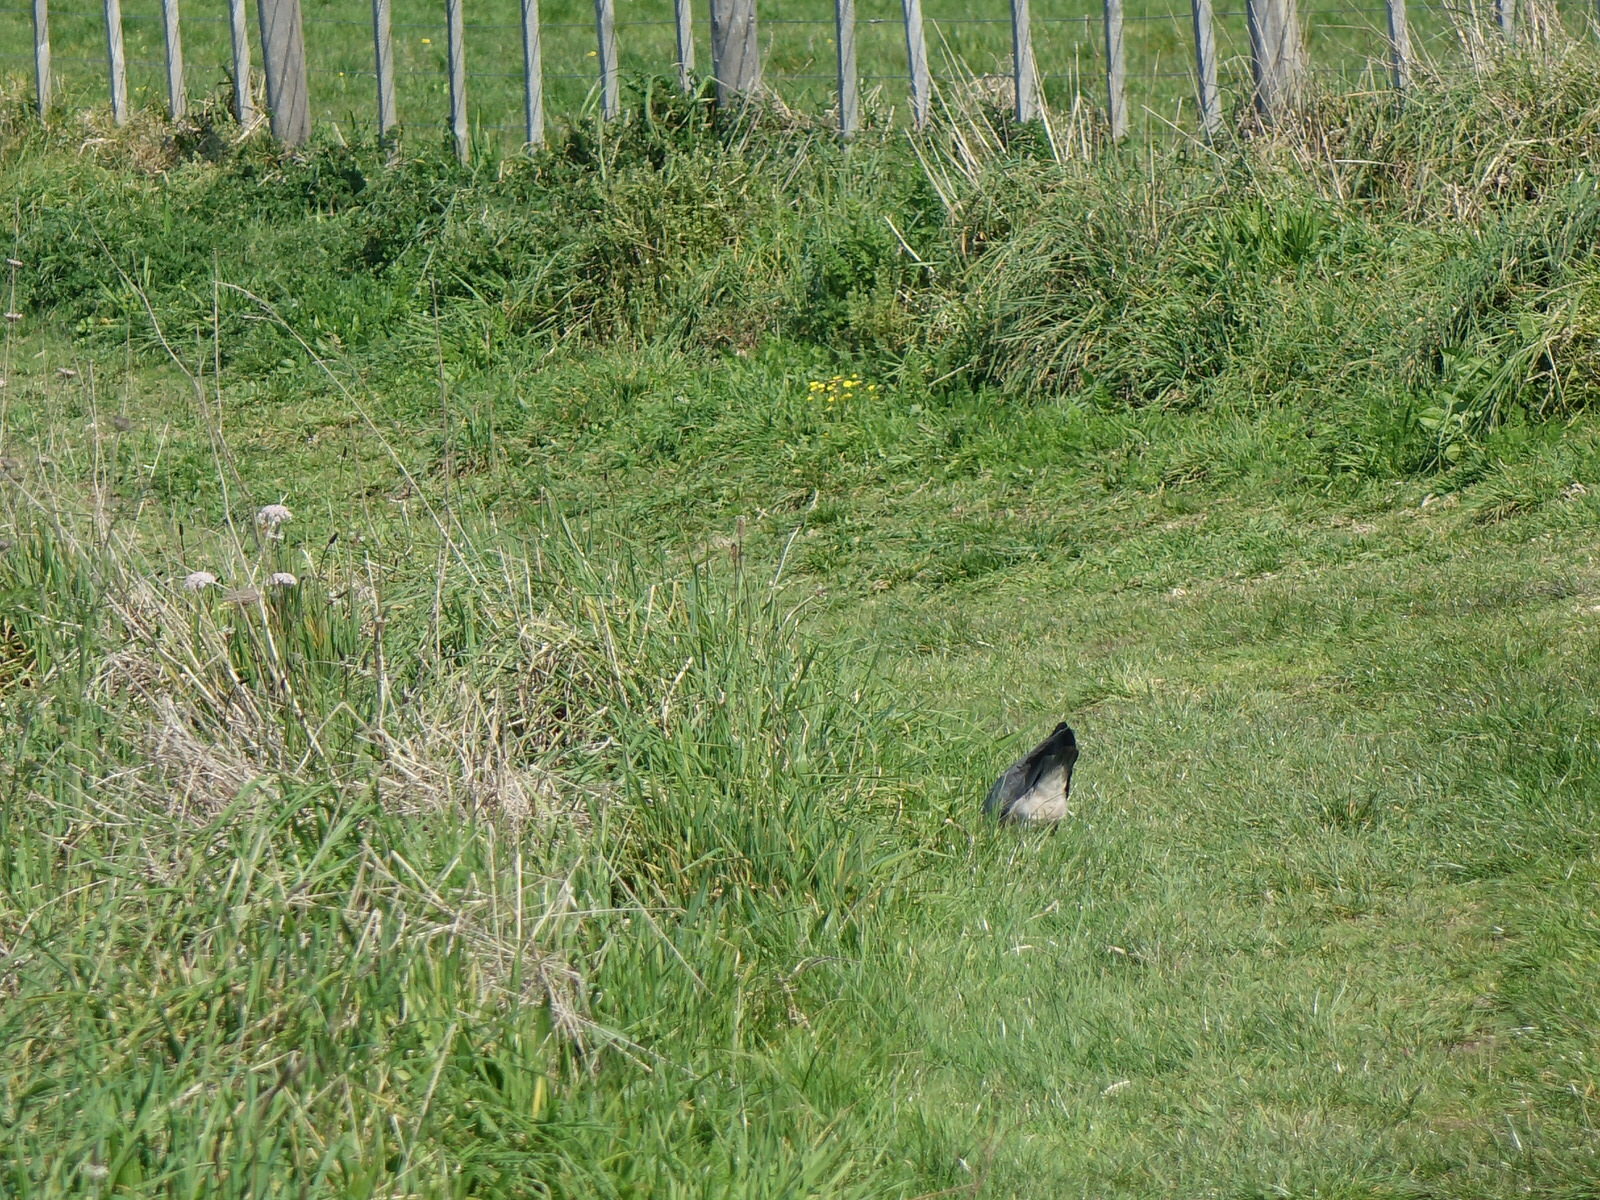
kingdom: Animalia
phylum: Chordata
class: Aves
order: Pelecaniformes
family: Ardeidae
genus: Egretta
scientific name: Egretta novaehollandiae
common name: White-faced heron
